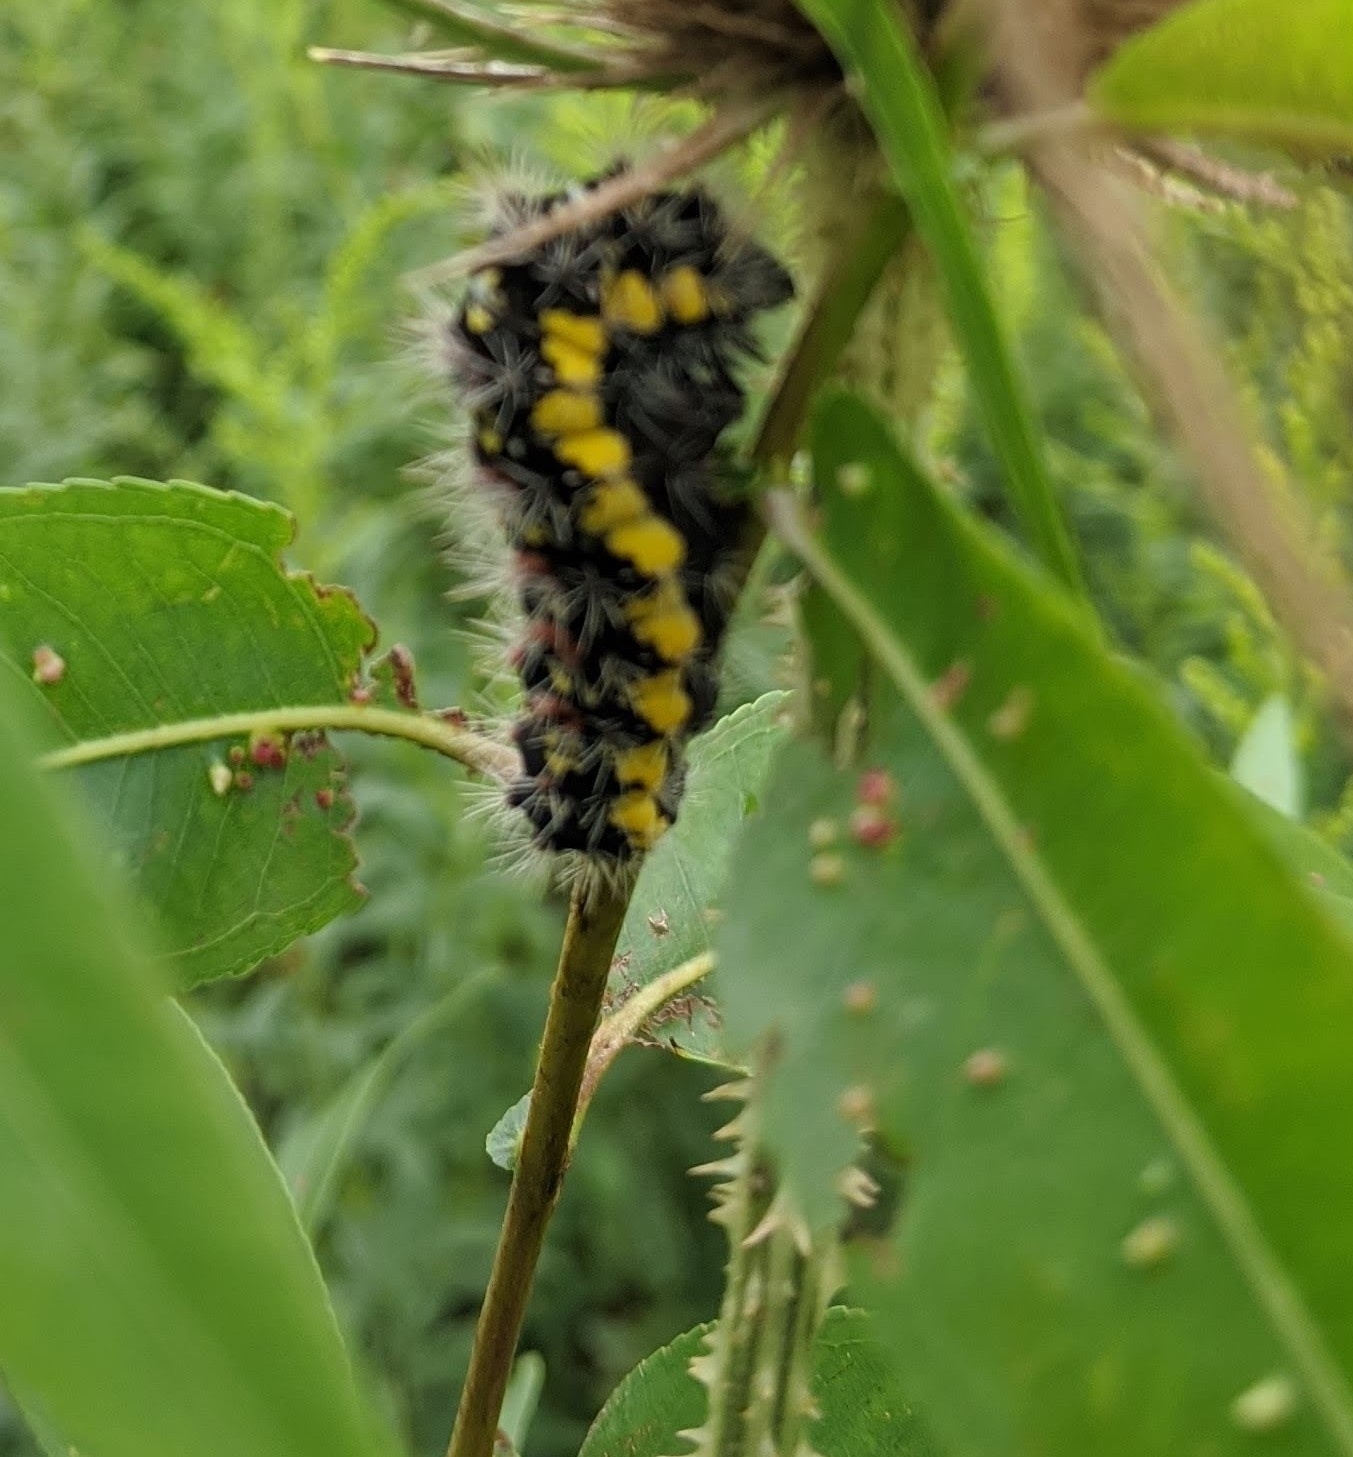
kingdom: Animalia
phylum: Arthropoda
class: Insecta
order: Lepidoptera
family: Noctuidae
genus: Acronicta
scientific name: Acronicta oblinita
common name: Smeared dagger
